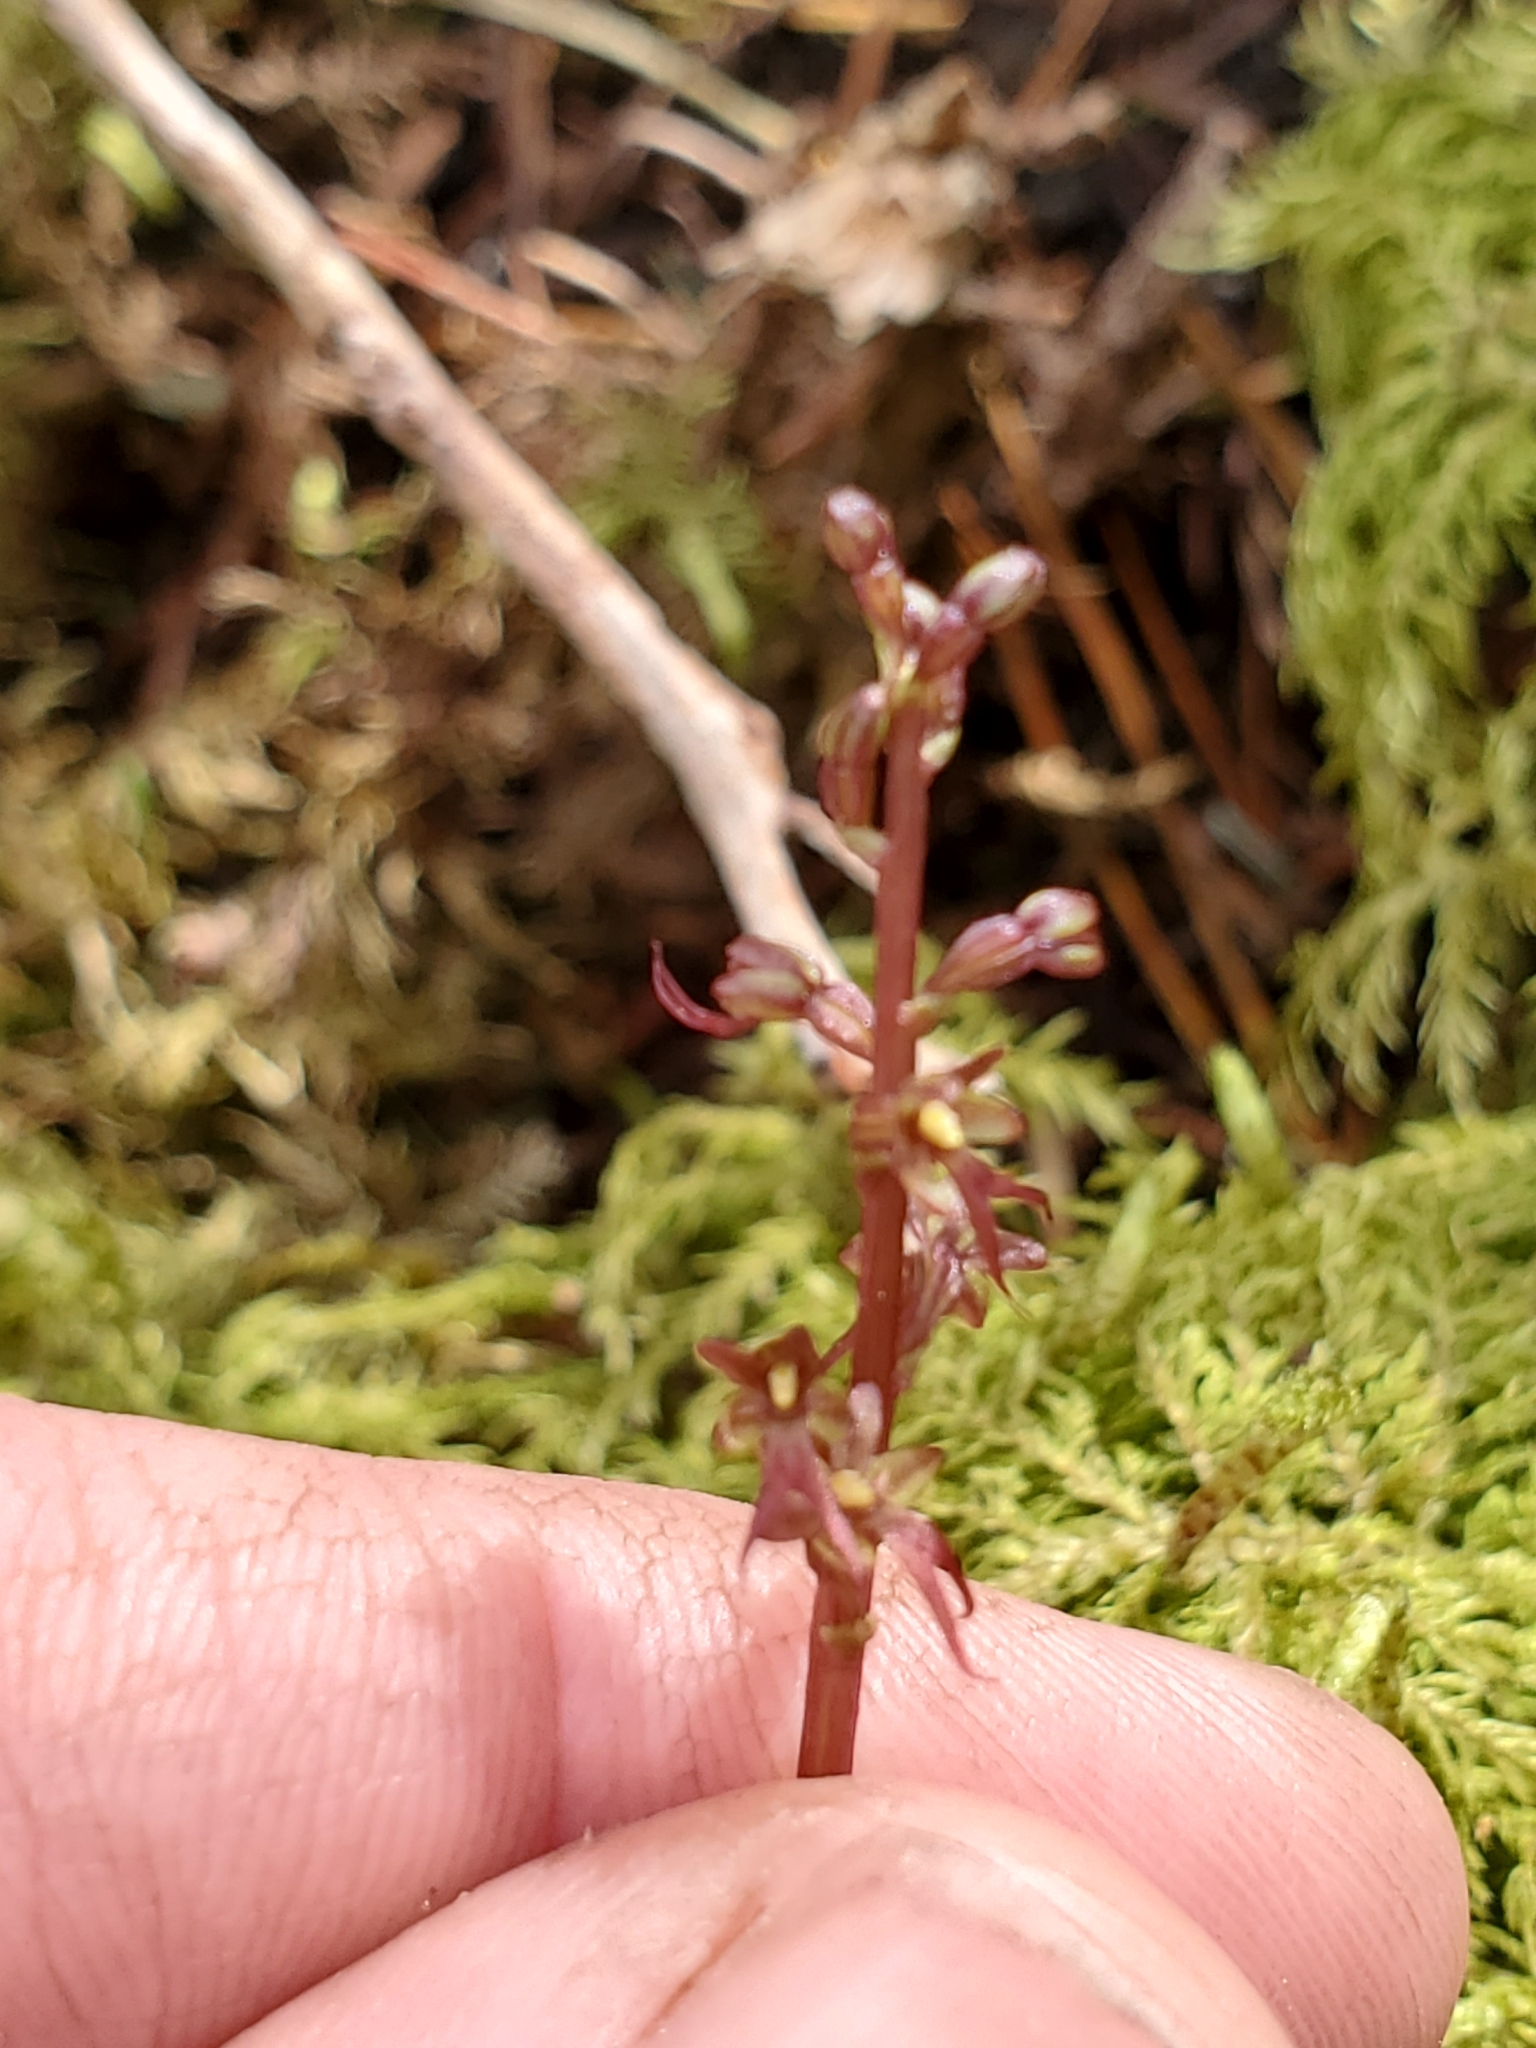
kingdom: Plantae
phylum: Tracheophyta
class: Liliopsida
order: Asparagales
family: Orchidaceae
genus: Neottia
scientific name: Neottia cordata
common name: Lesser twayblade
